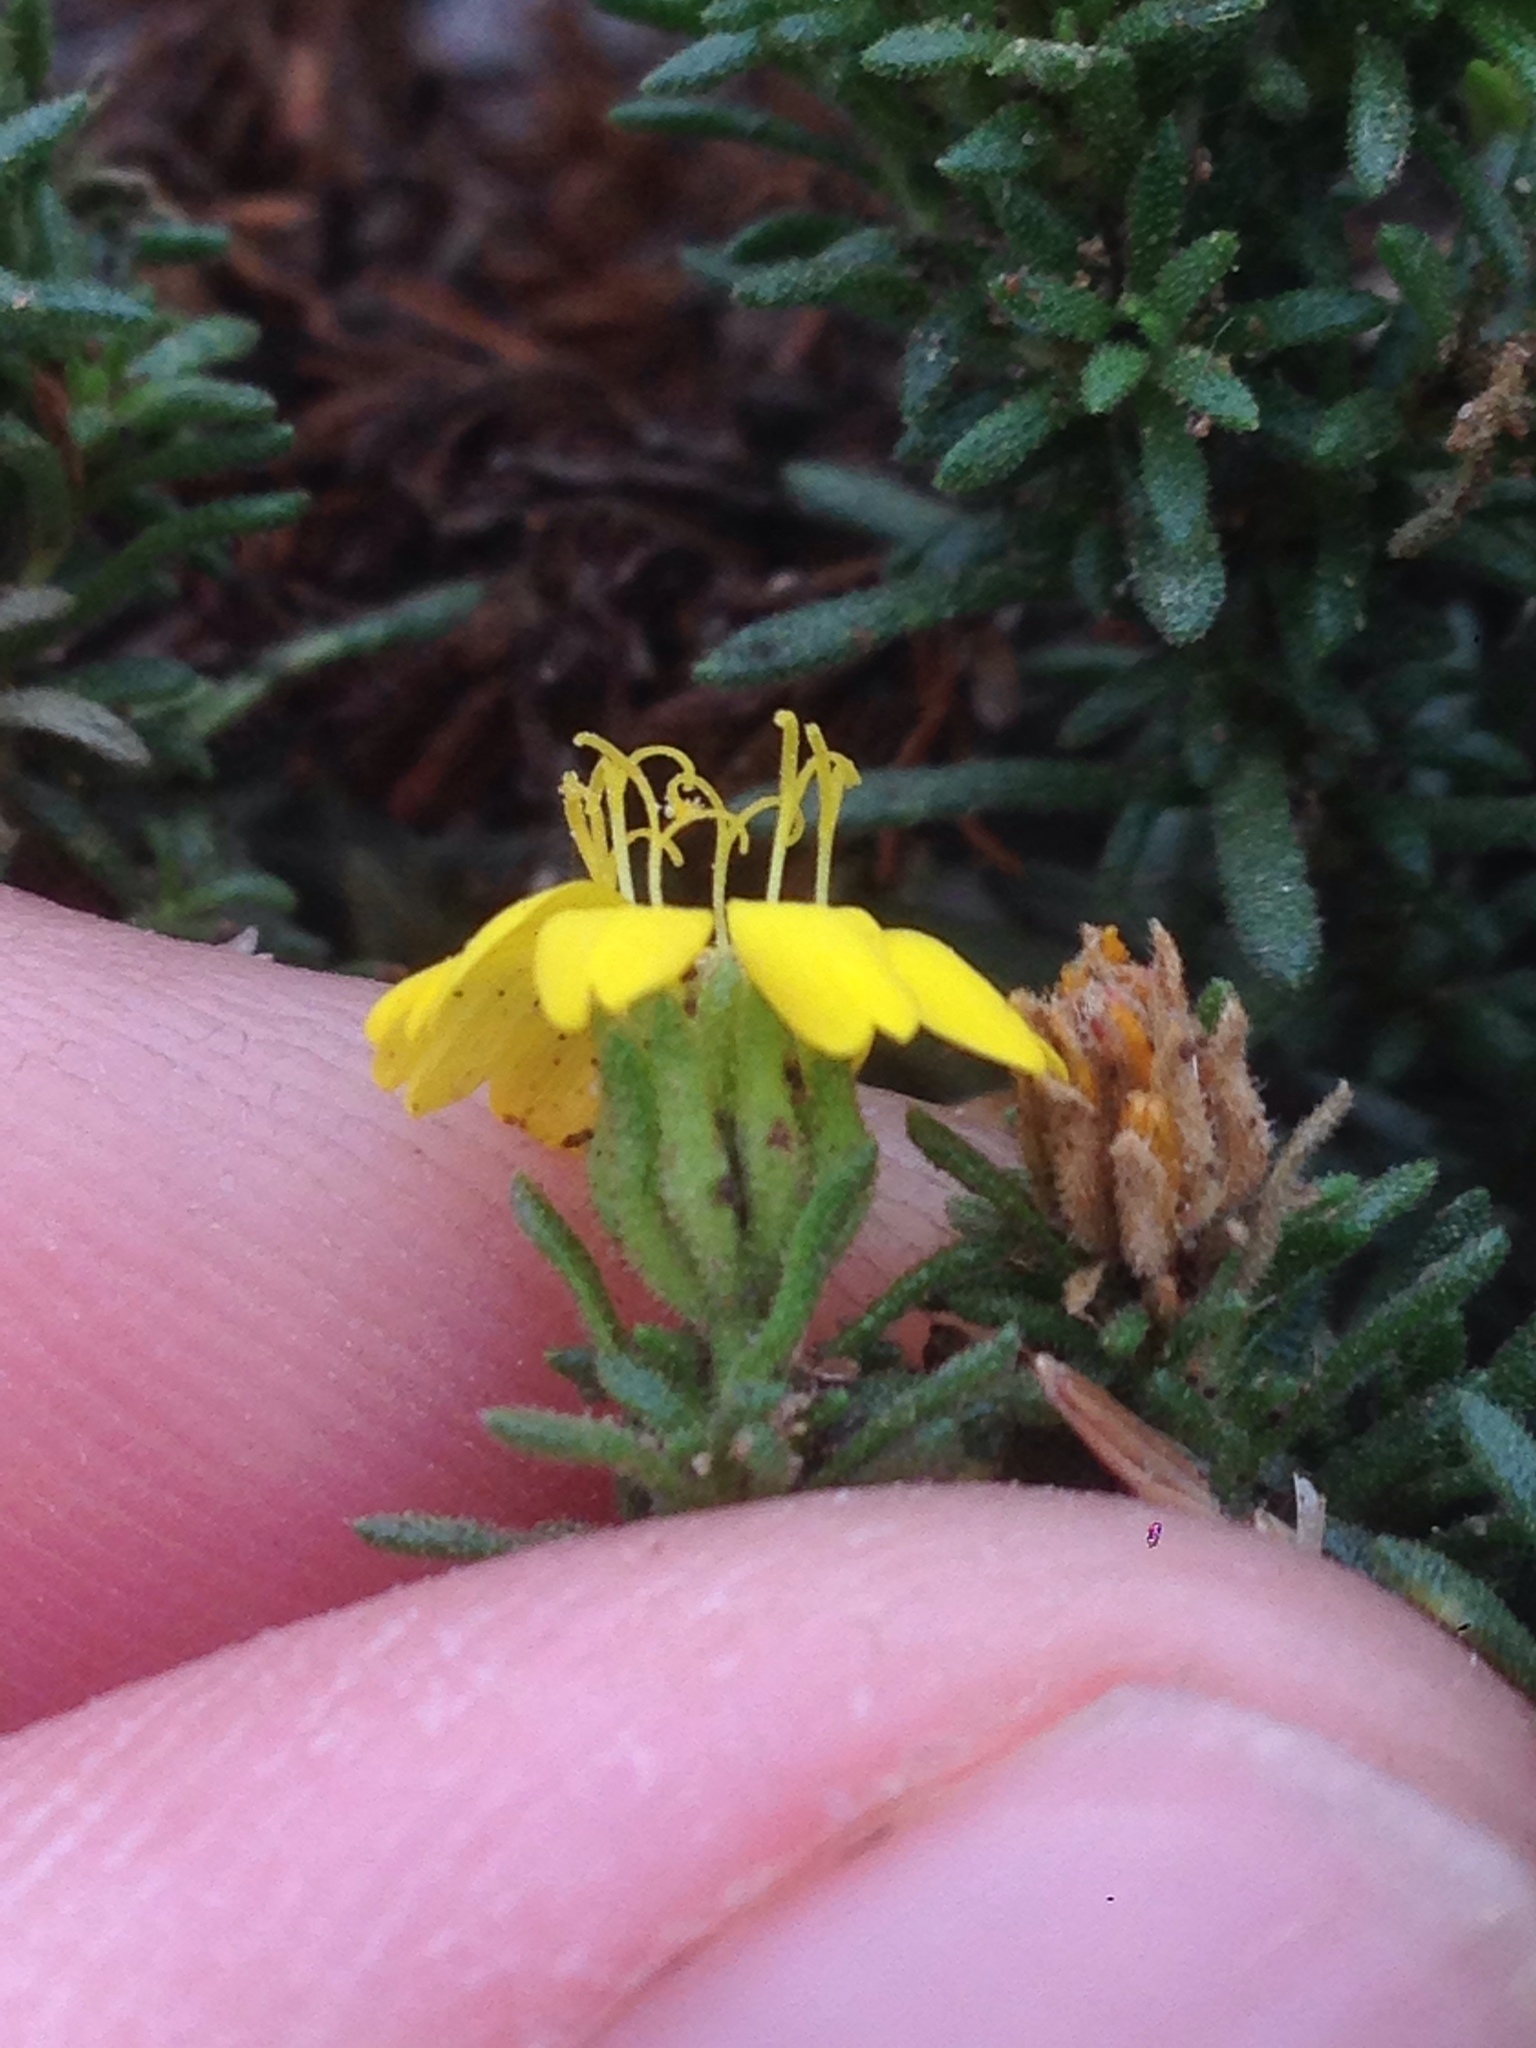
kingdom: Plantae
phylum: Tracheophyta
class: Magnoliopsida
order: Asterales
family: Asteraceae
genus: Deinandra
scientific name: Deinandra clementina
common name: Island tarplant
